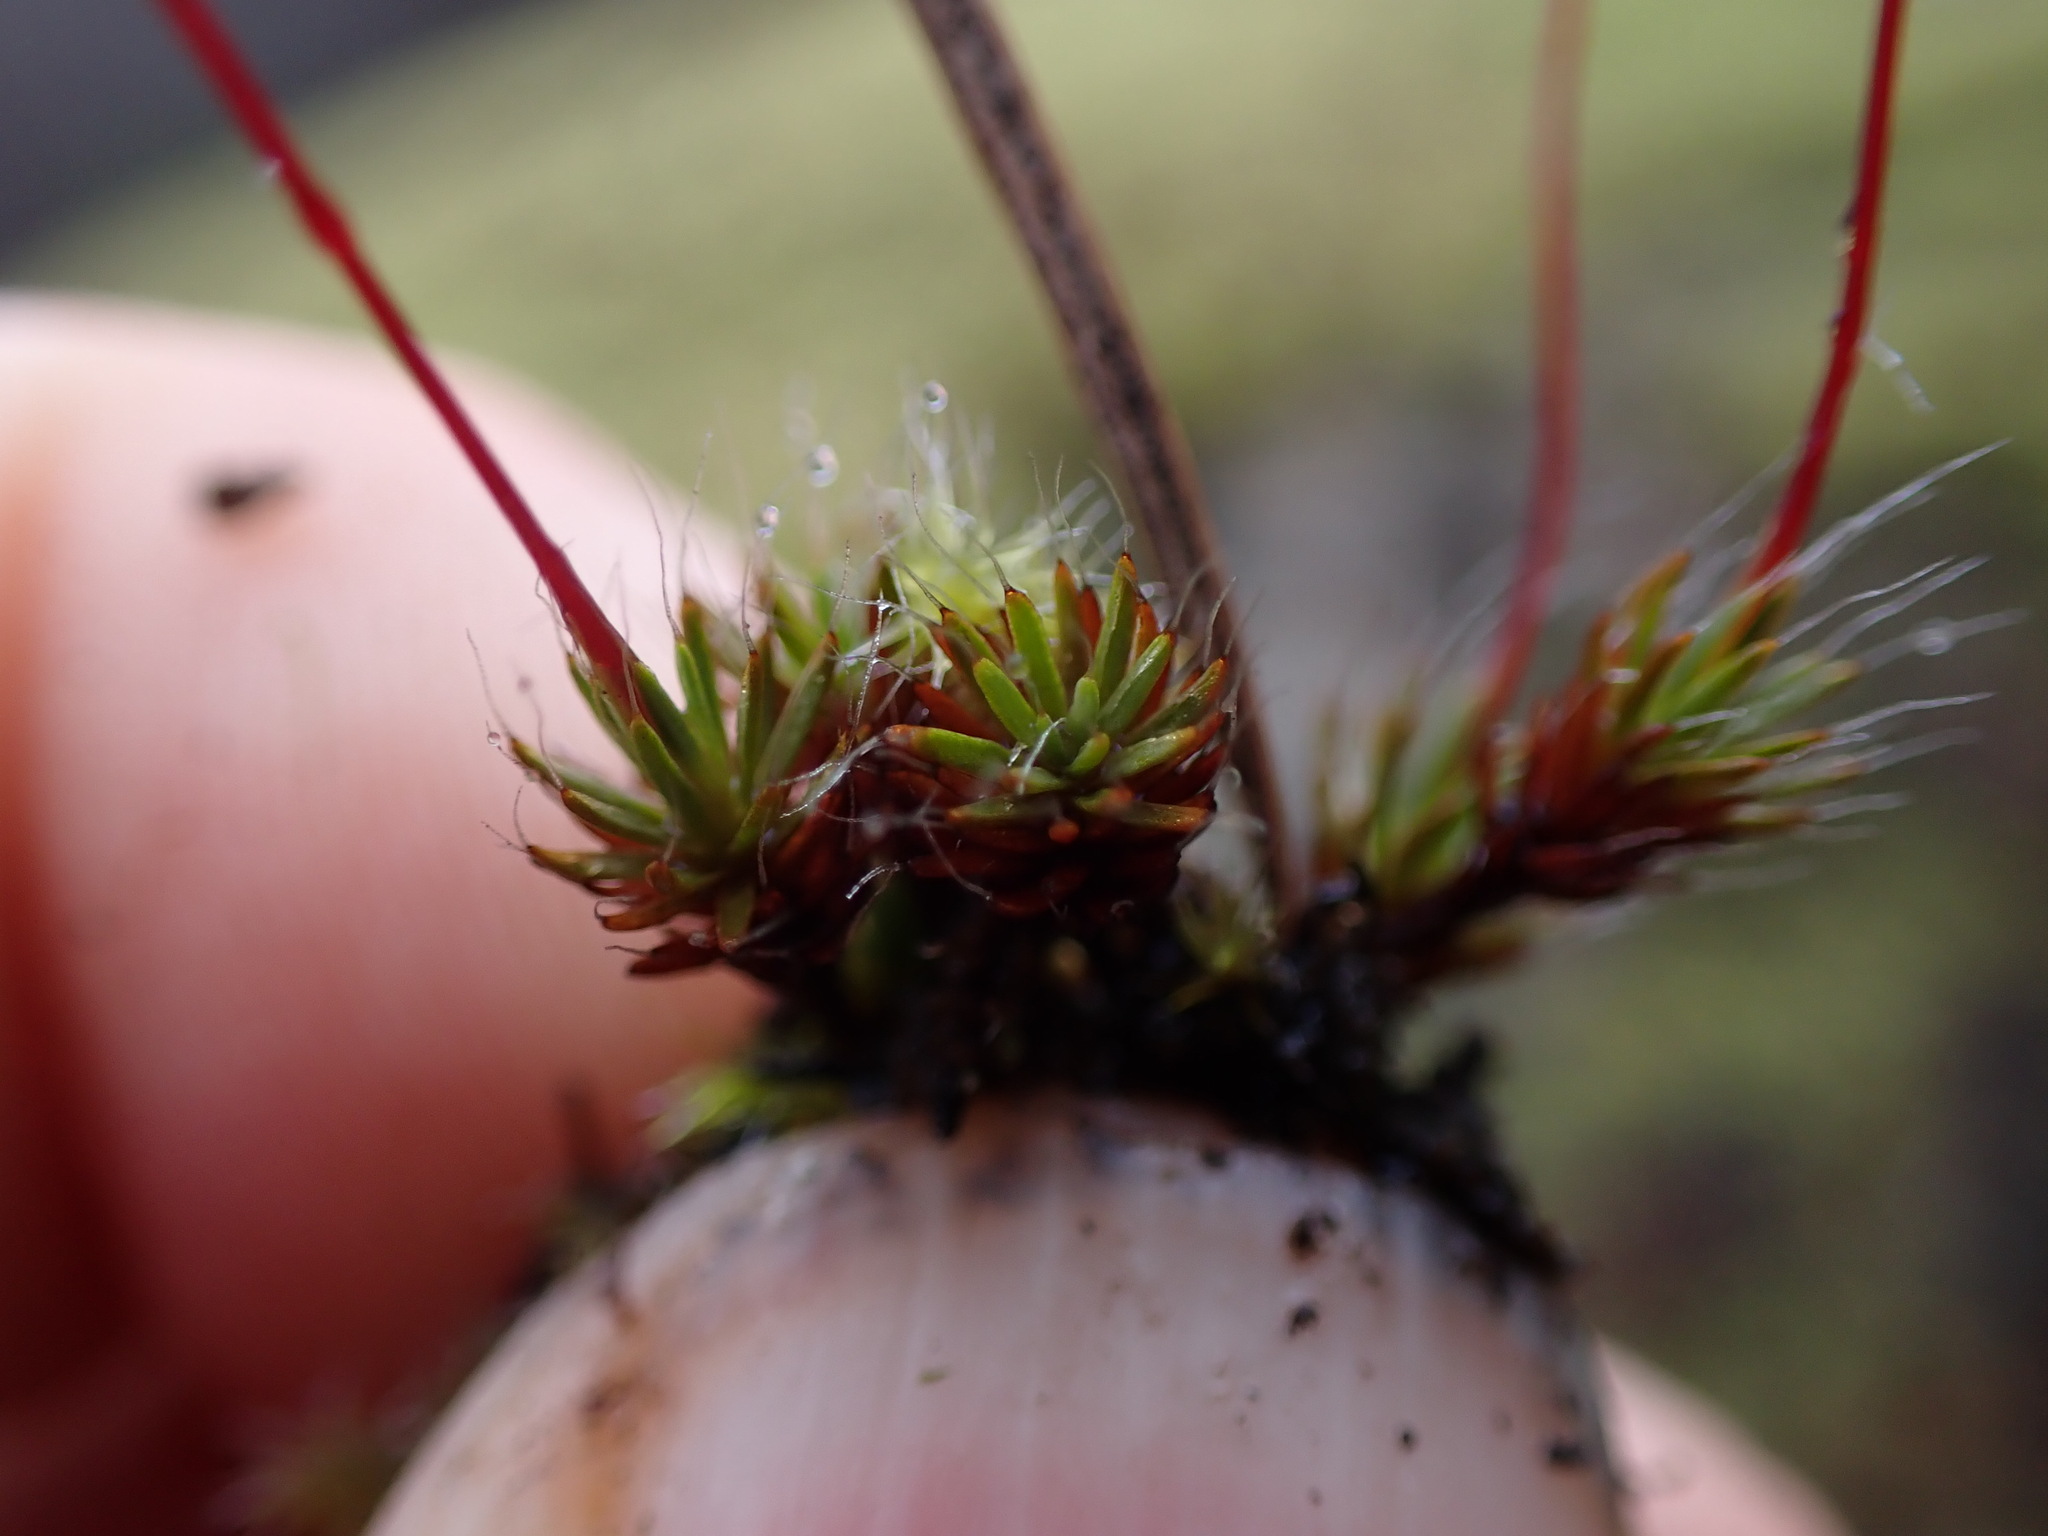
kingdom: Plantae
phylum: Bryophyta
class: Polytrichopsida
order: Polytrichales
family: Polytrichaceae
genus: Polytrichum
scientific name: Polytrichum piliferum
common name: Bristly haircap
